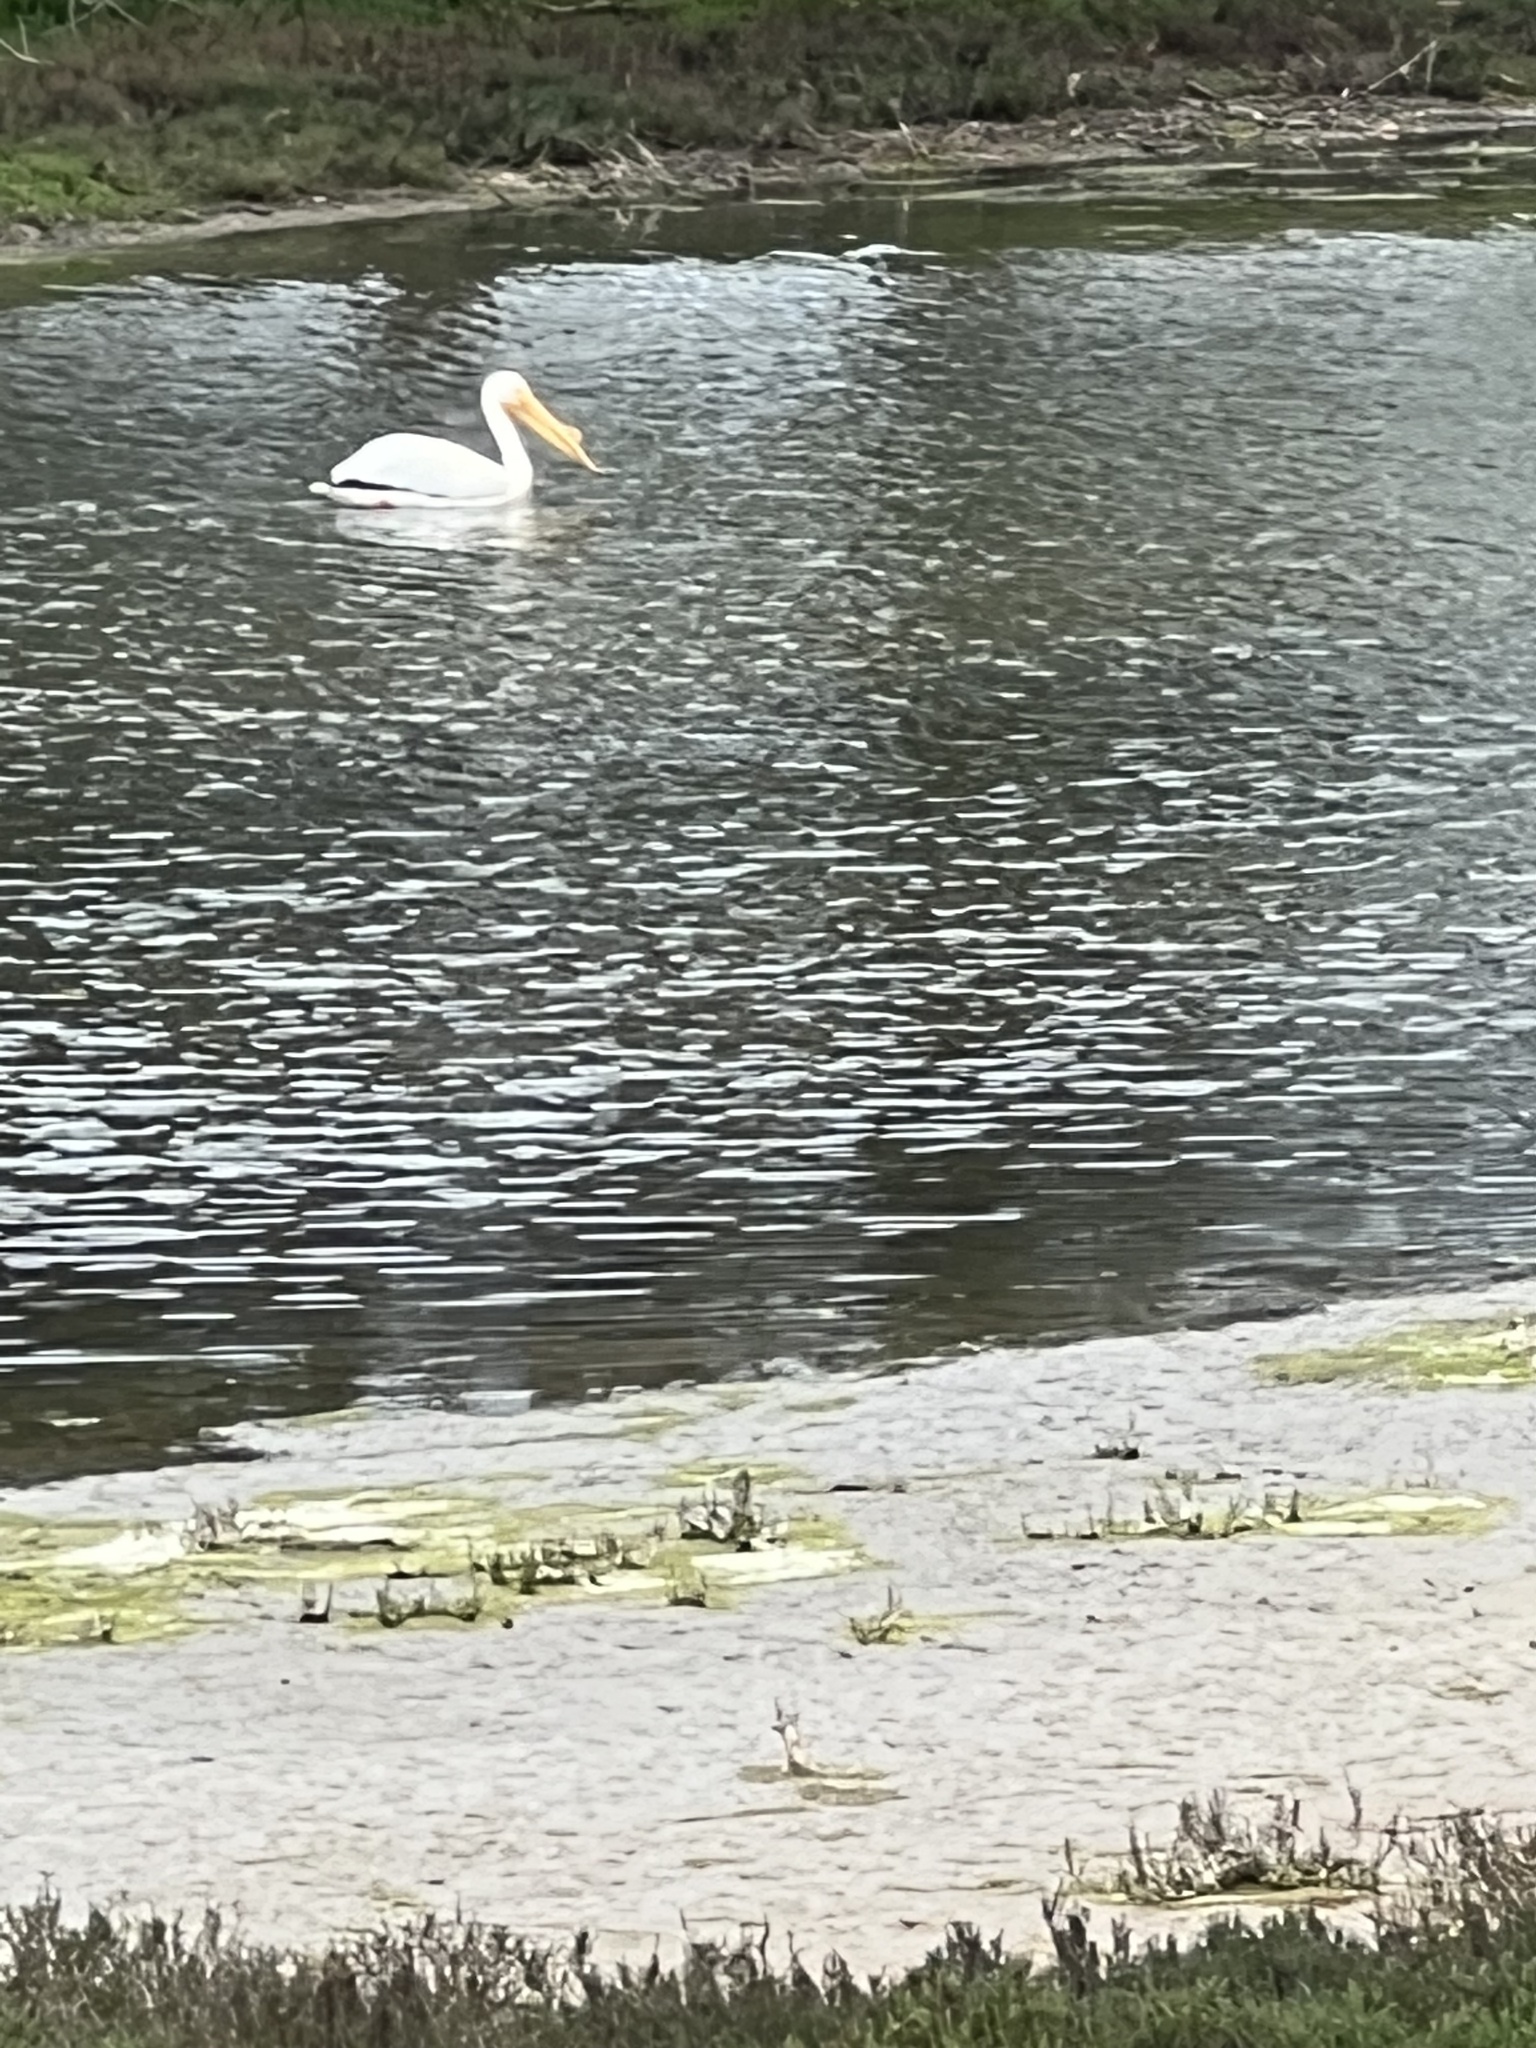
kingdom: Animalia
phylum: Chordata
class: Aves
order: Pelecaniformes
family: Pelecanidae
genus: Pelecanus
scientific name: Pelecanus erythrorhynchos
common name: American white pelican
